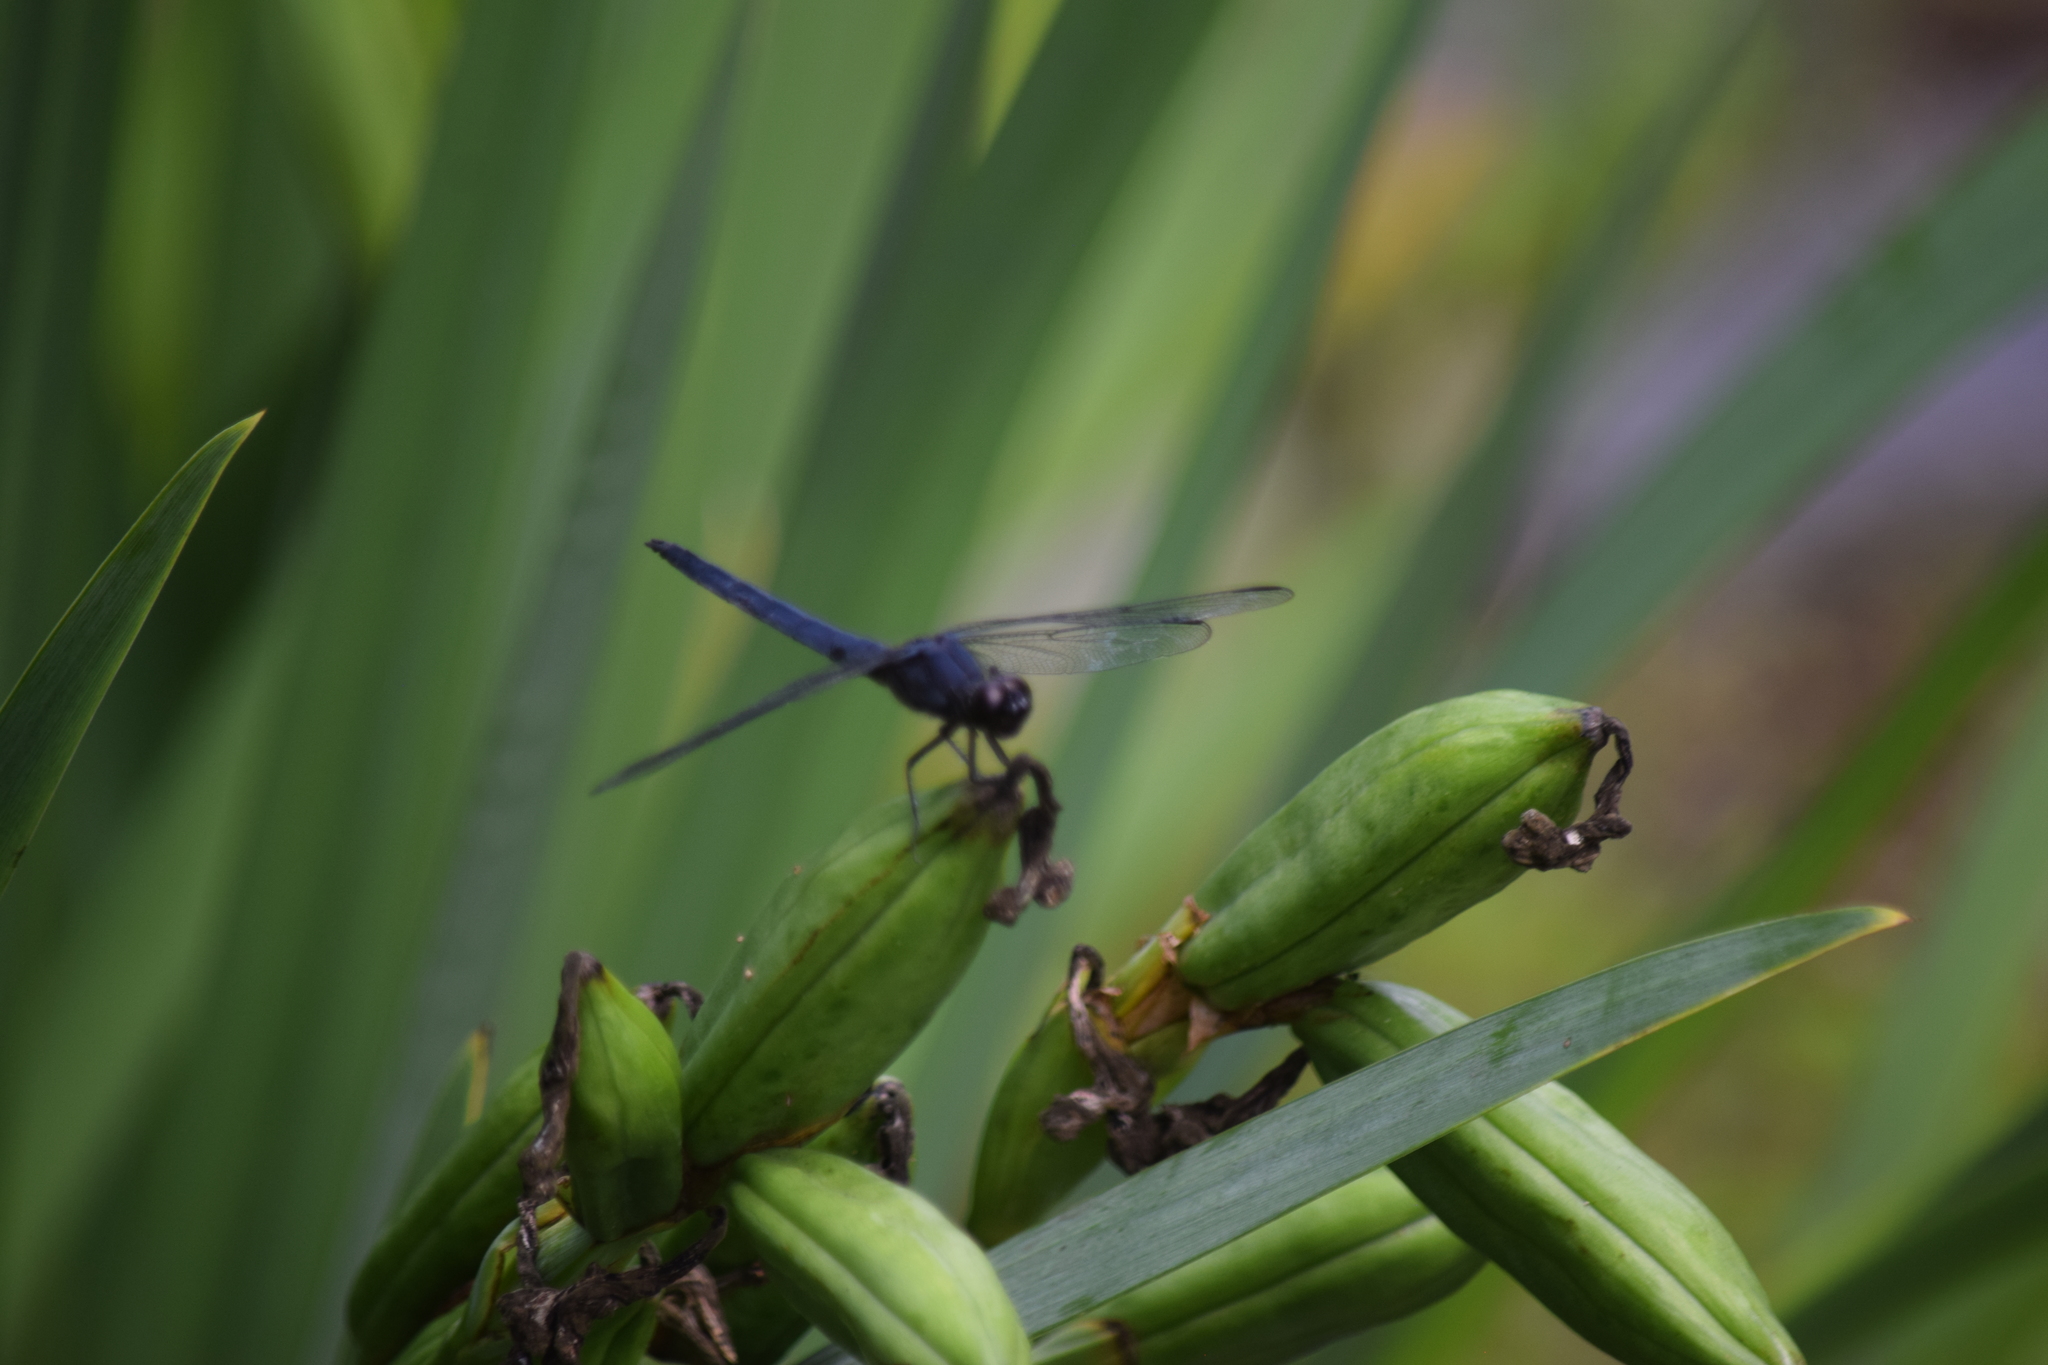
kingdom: Animalia
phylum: Arthropoda
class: Insecta
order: Odonata
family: Libellulidae
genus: Libellula
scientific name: Libellula incesta
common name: Slaty skimmer
